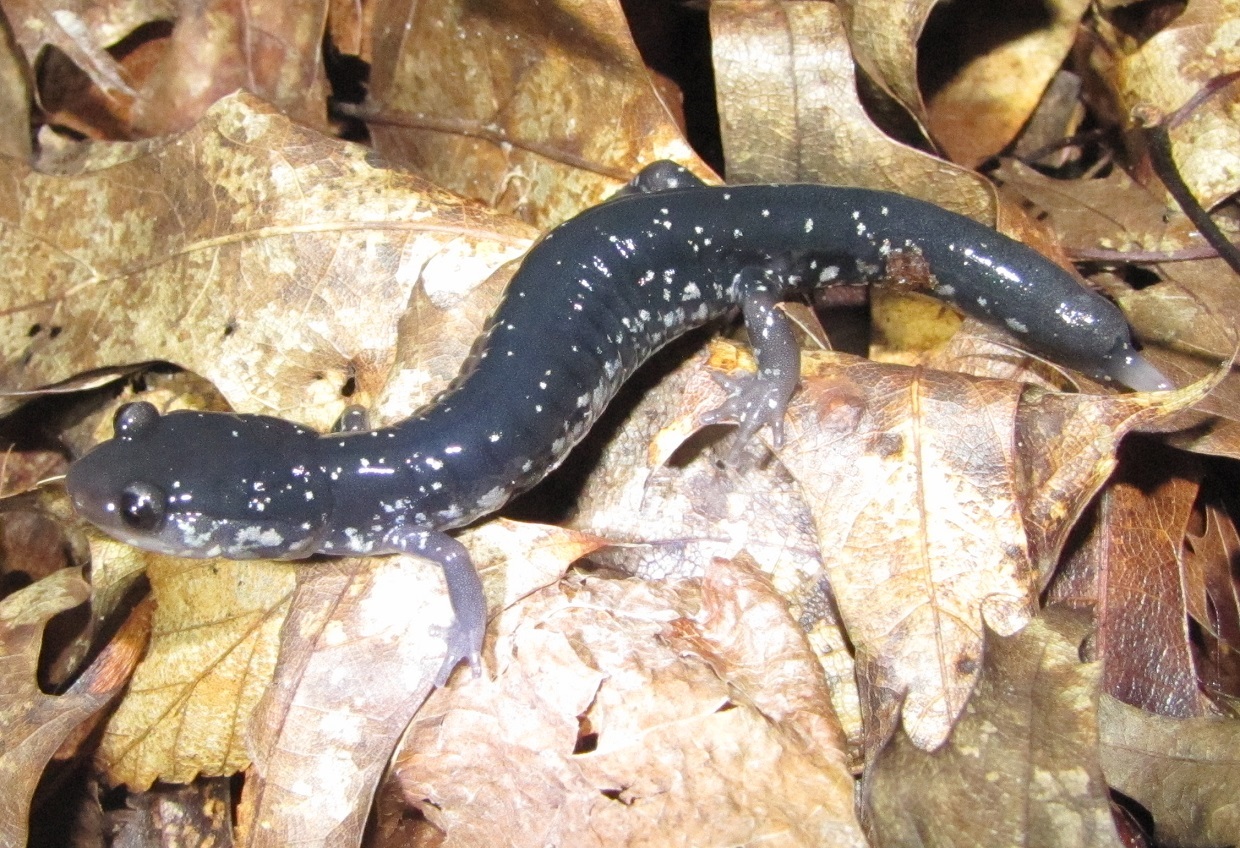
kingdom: Animalia
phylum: Chordata
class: Amphibia
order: Caudata
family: Plethodontidae
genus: Plethodon
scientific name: Plethodon cylindraceus
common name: White-spotted slimy salamander
